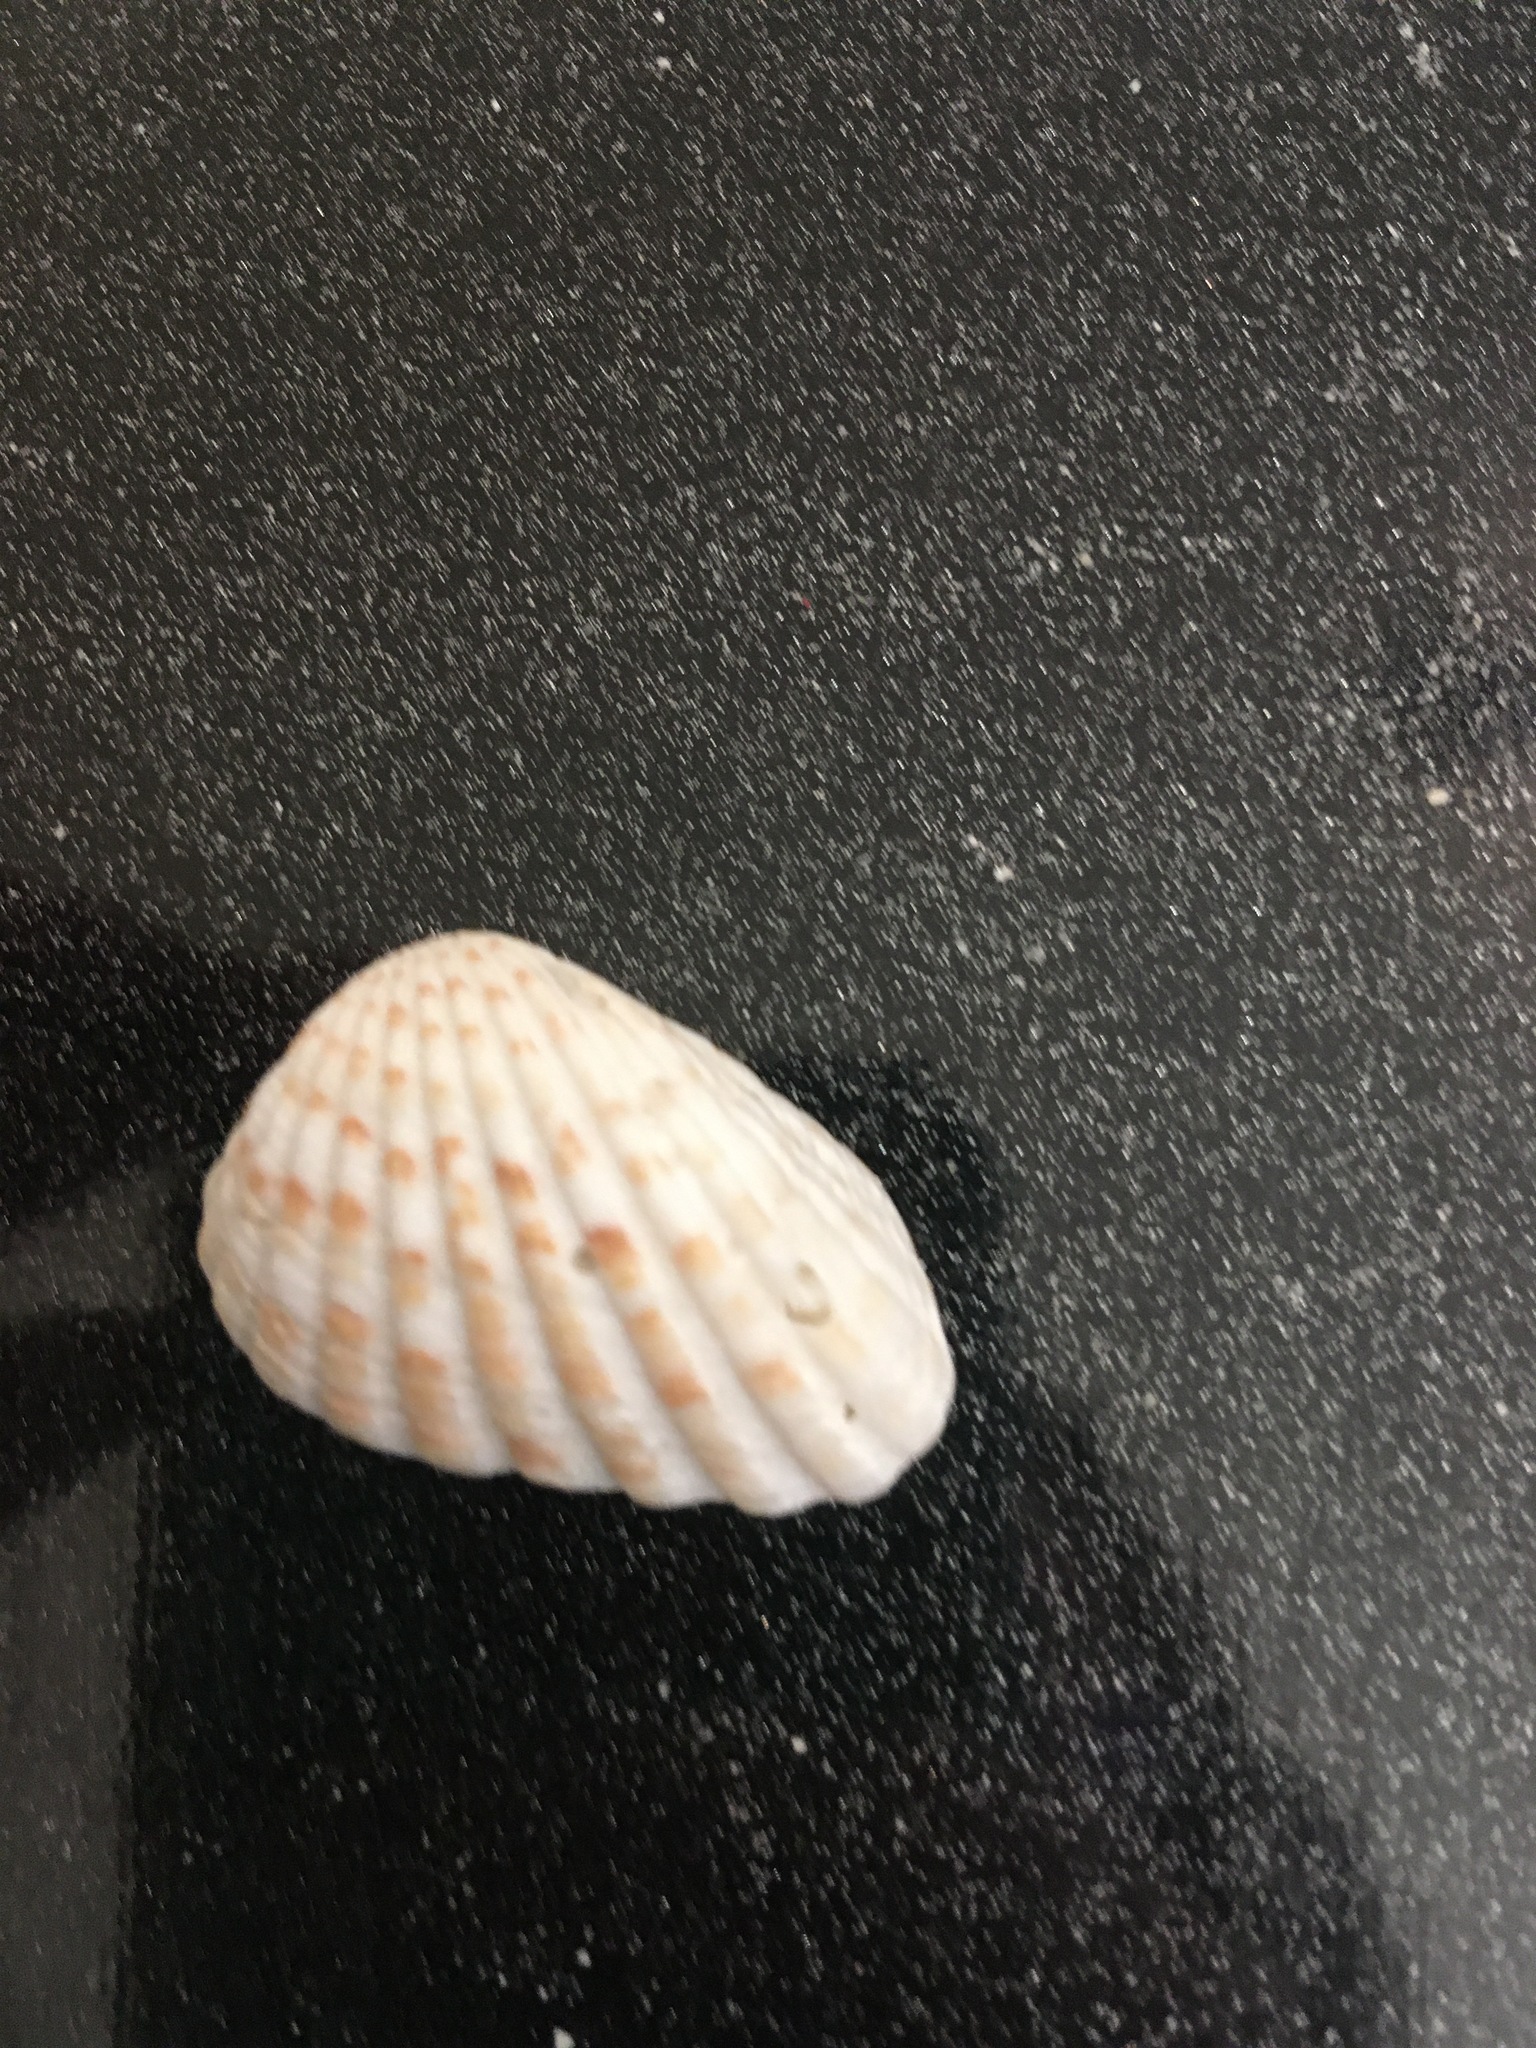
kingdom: Animalia
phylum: Mollusca
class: Bivalvia
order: Carditida
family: Carditidae
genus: Cardites
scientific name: Cardites floridanus
